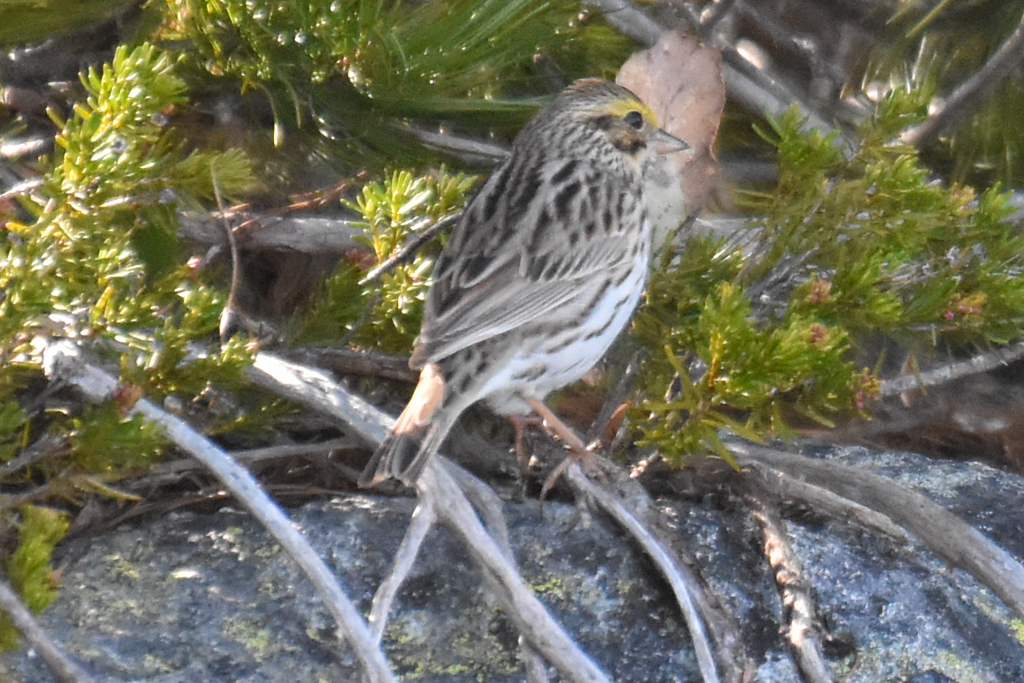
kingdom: Animalia
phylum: Chordata
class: Aves
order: Passeriformes
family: Passerellidae
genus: Passerculus
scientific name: Passerculus sandwichensis
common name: Savannah sparrow
